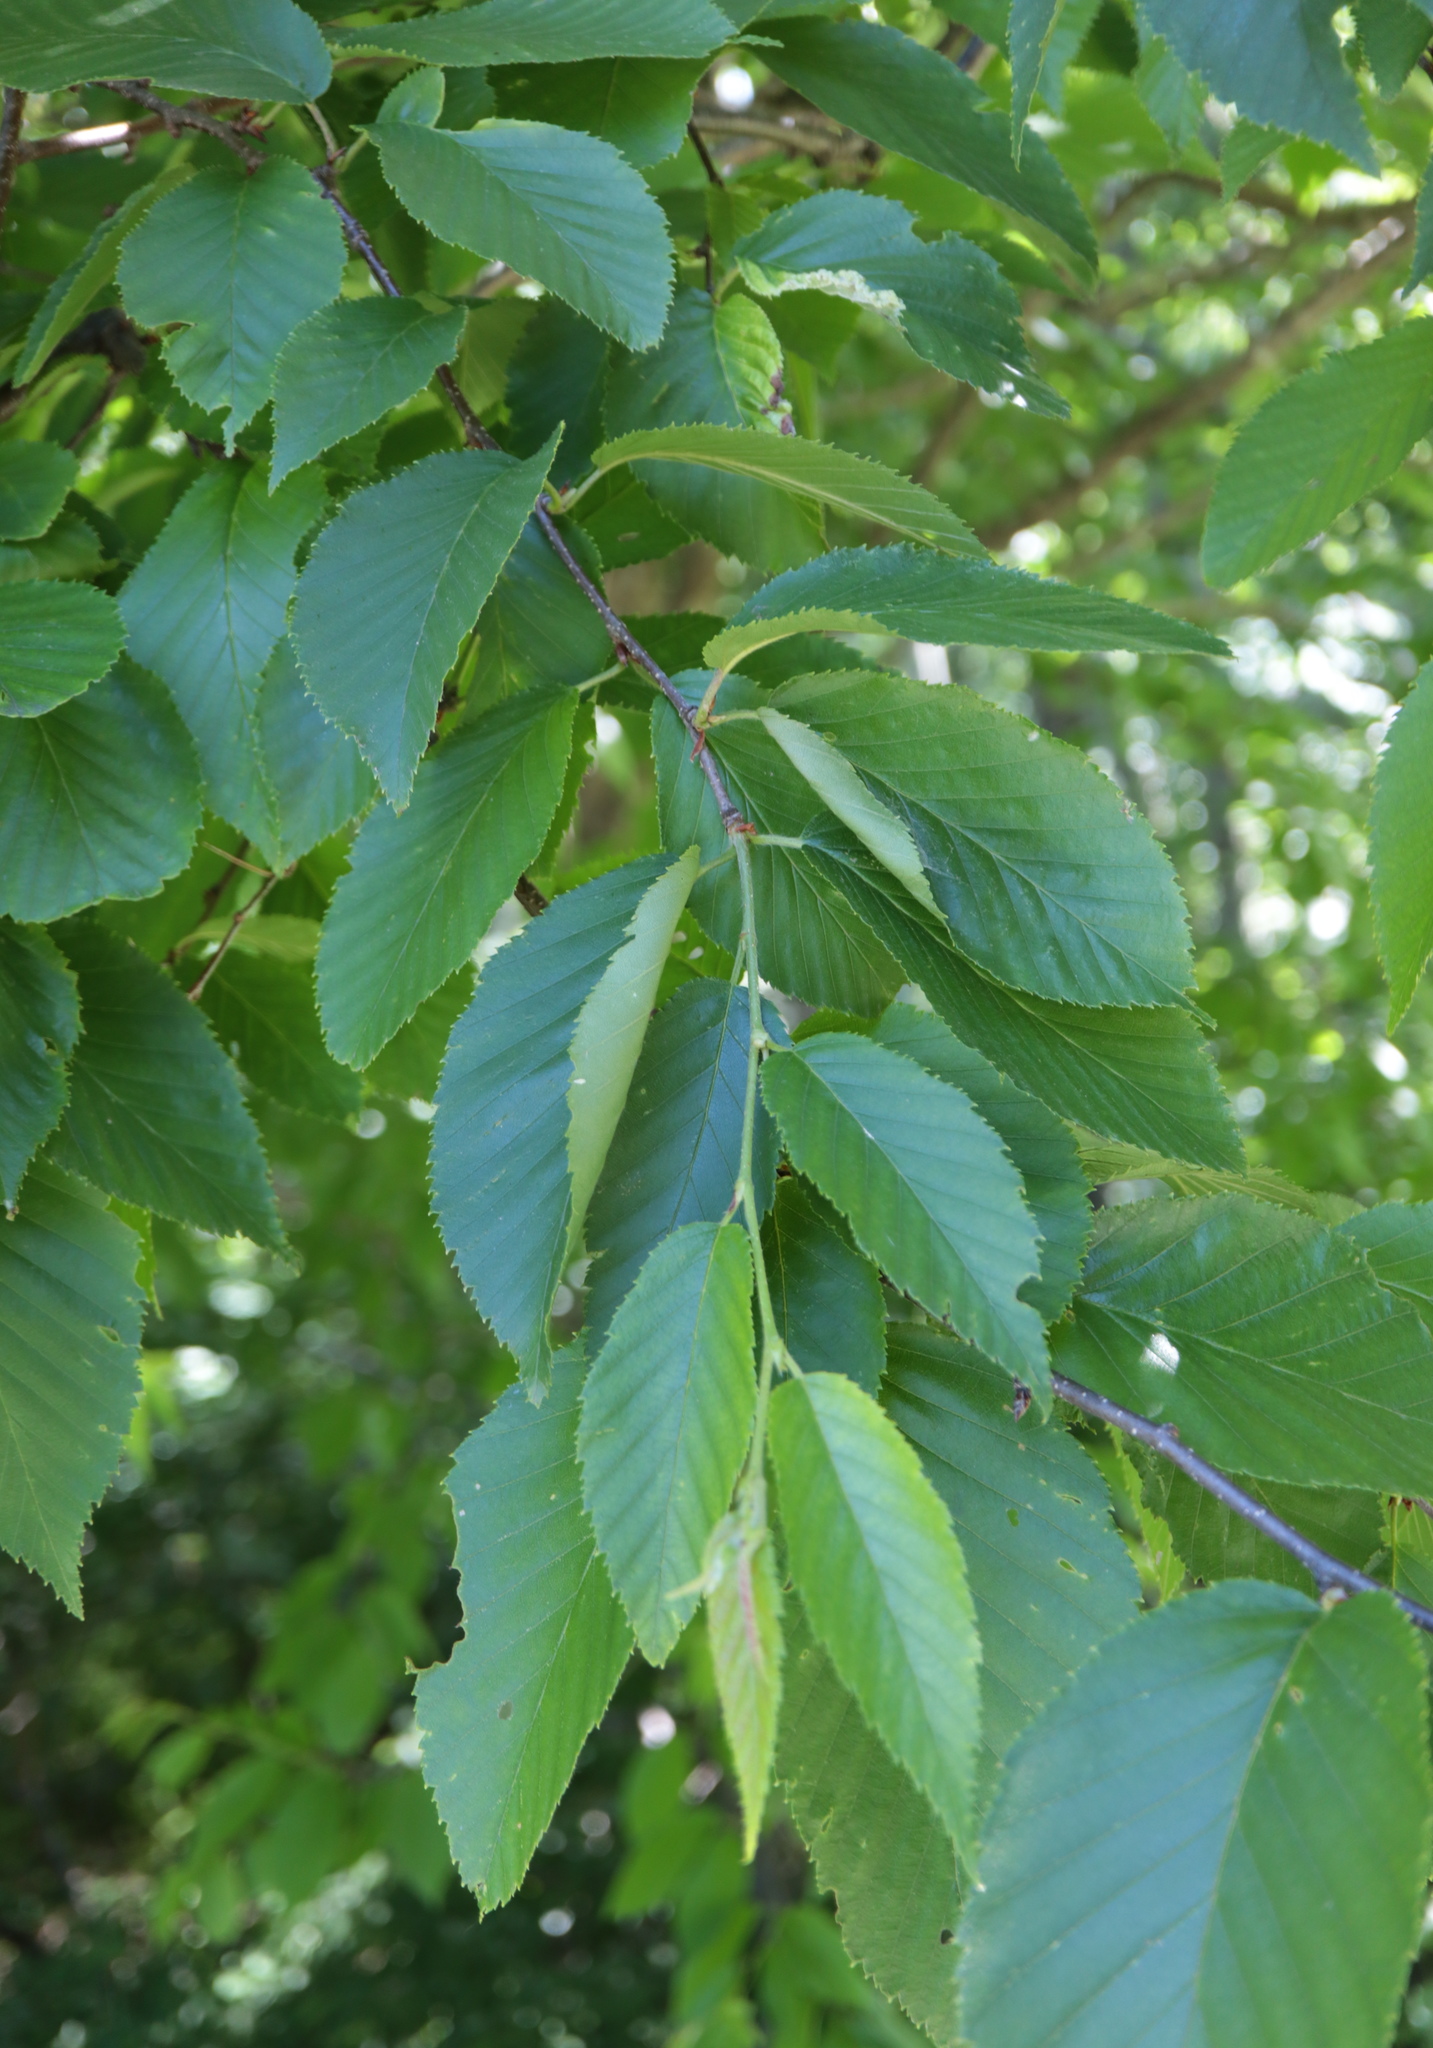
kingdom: Plantae
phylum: Tracheophyta
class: Magnoliopsida
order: Fagales
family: Betulaceae
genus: Betula
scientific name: Betula lenta
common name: Black birch
